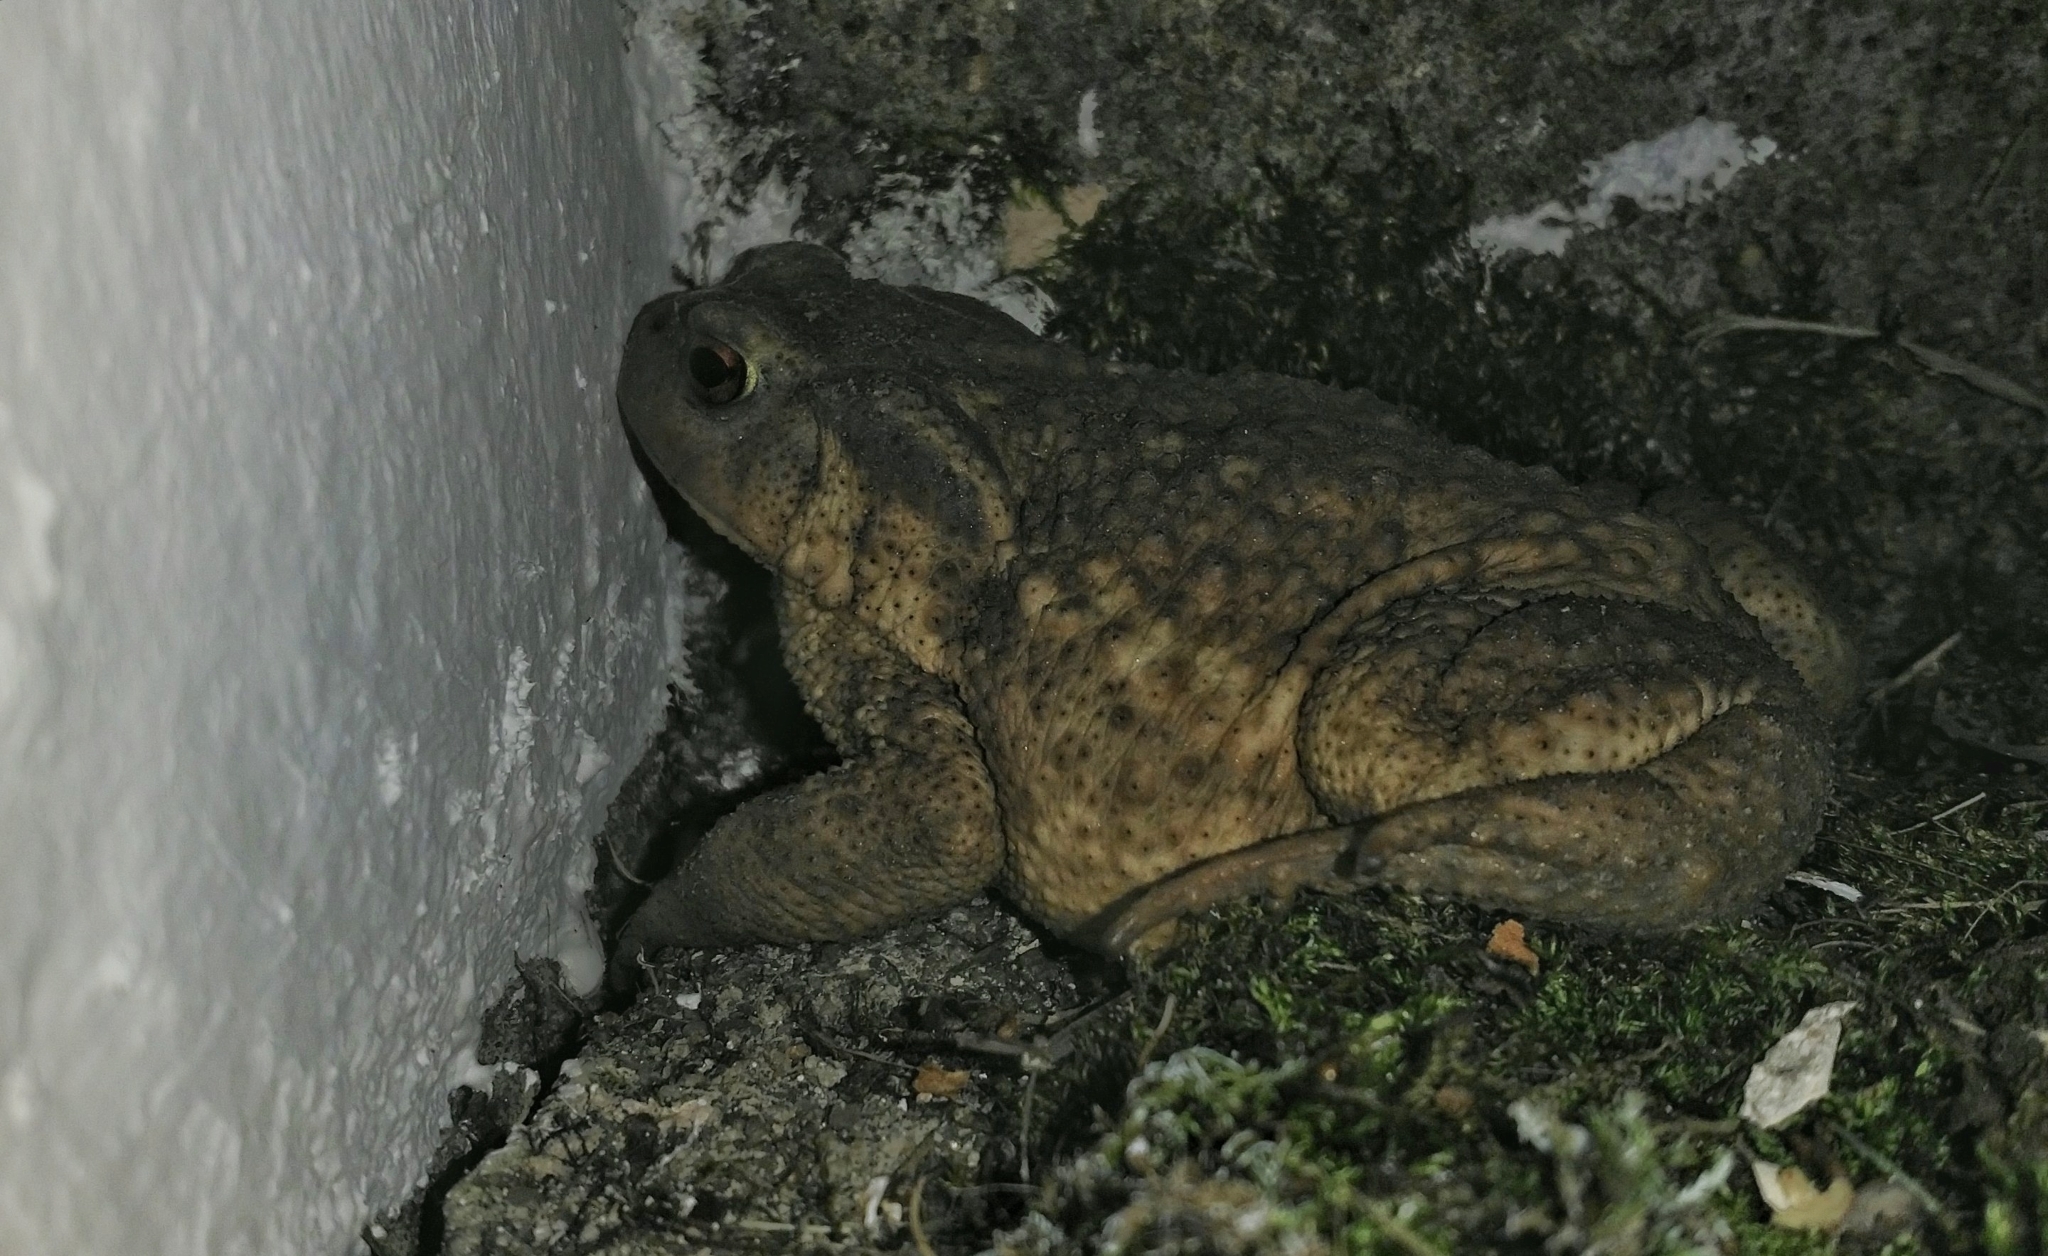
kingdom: Animalia
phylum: Chordata
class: Amphibia
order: Anura
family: Bufonidae
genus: Bufo
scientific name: Bufo spinosus
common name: Western common toad
